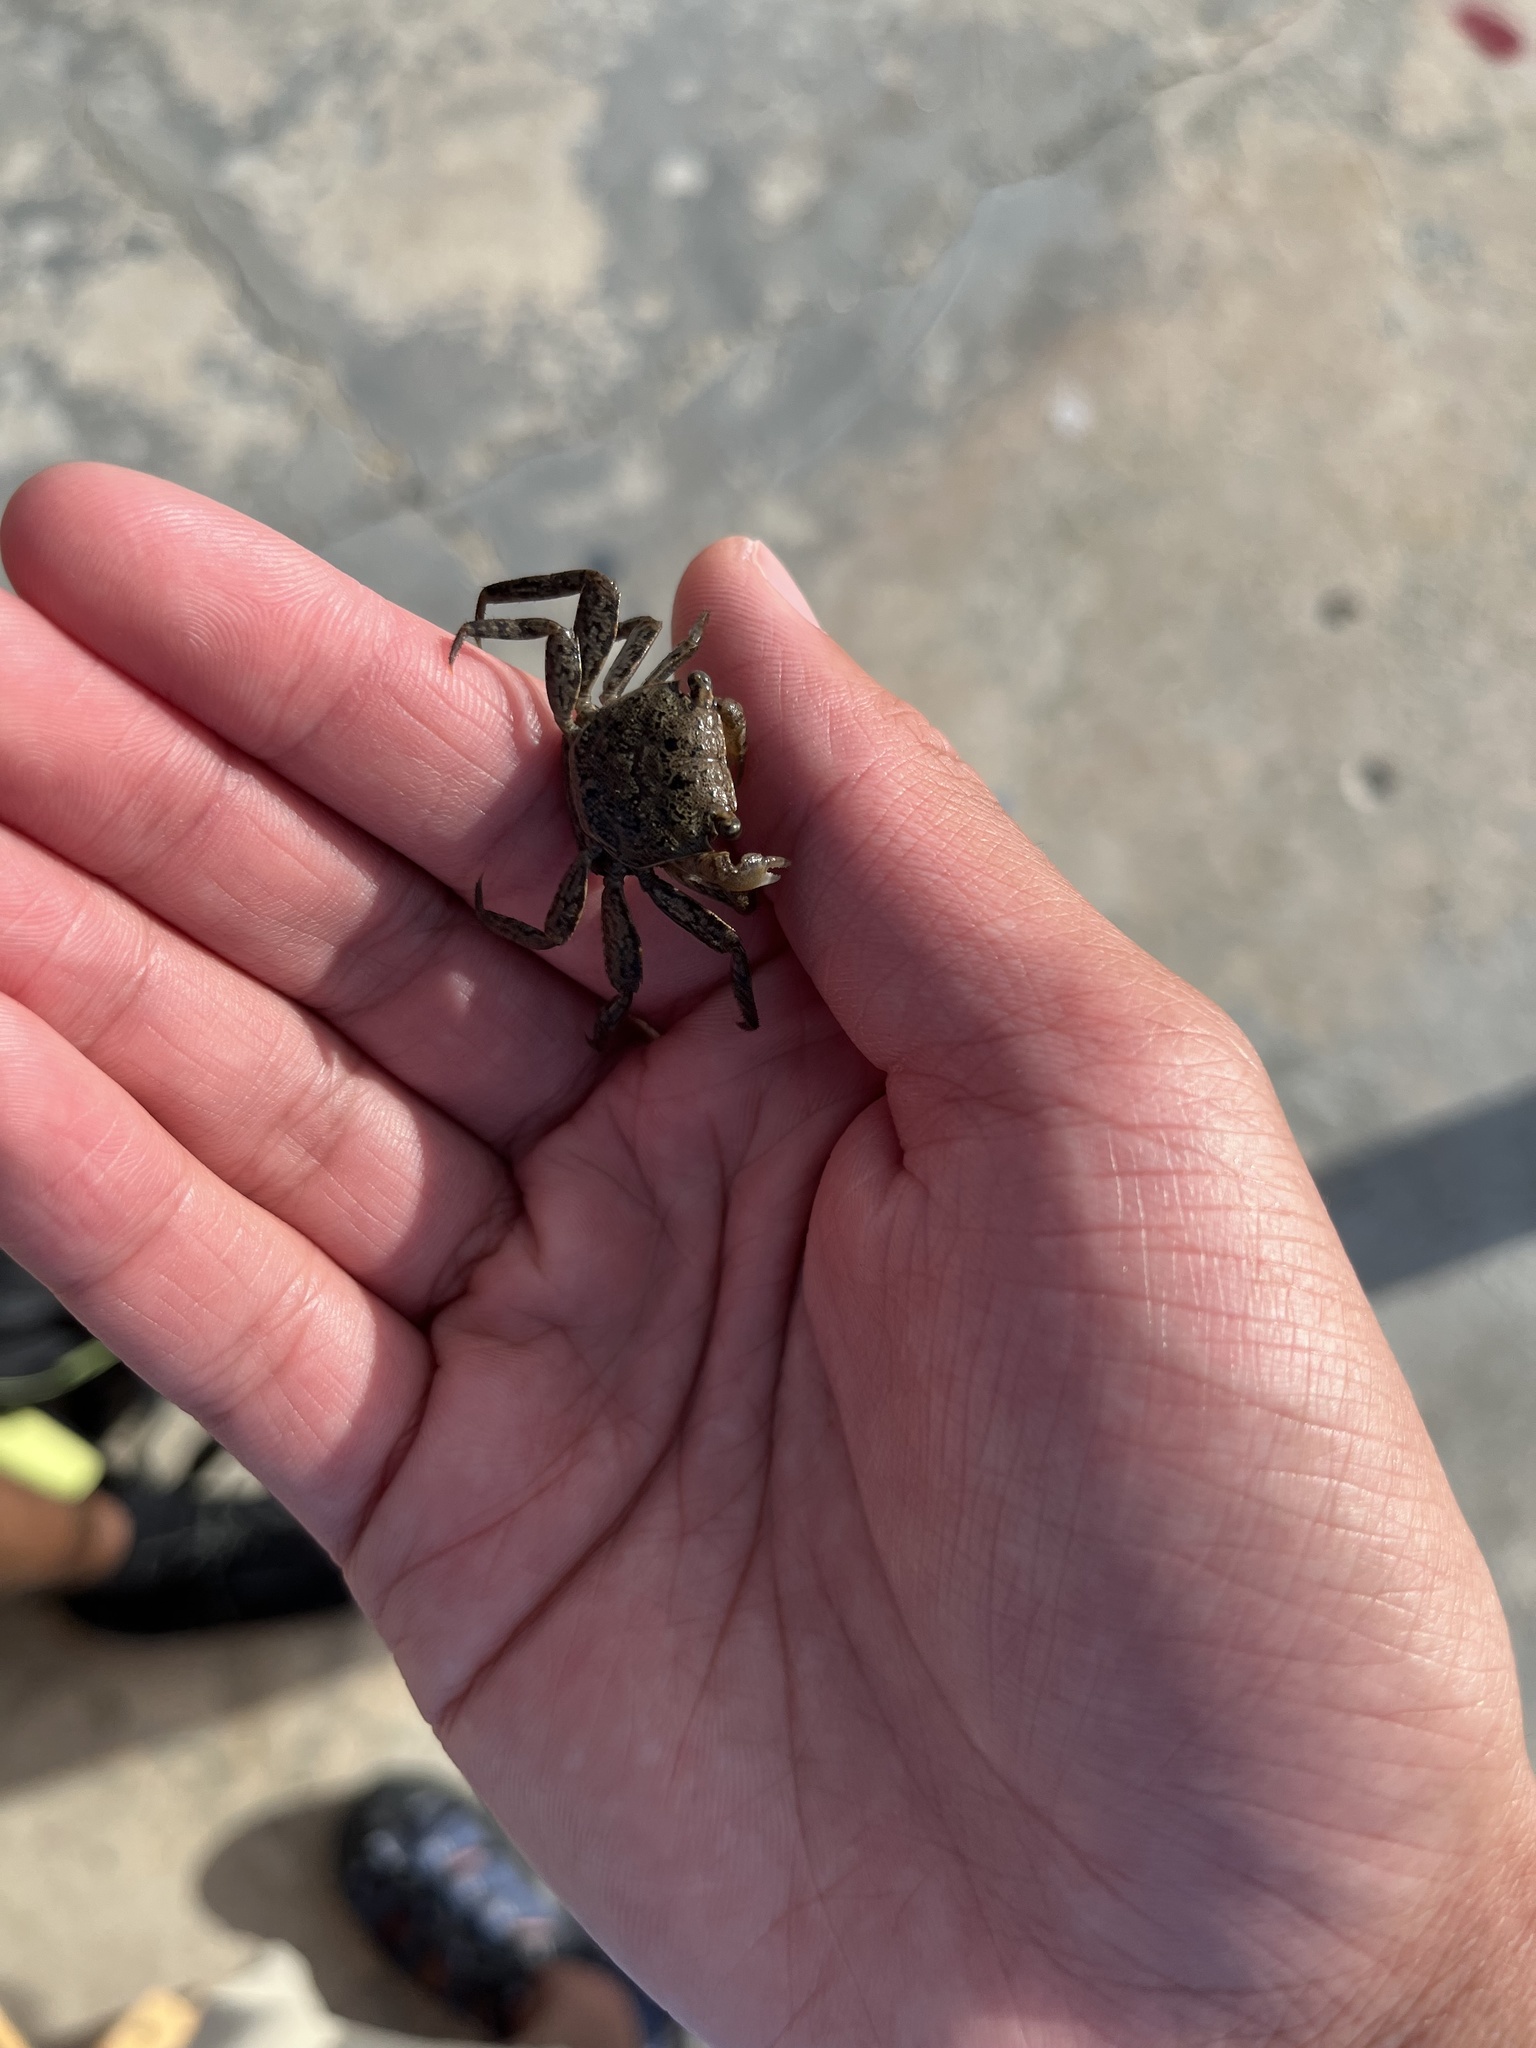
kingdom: Animalia
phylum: Arthropoda
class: Malacostraca
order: Decapoda
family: Sesarmidae
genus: Armases
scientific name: Armases cinereum
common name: Squareback marsh crab
